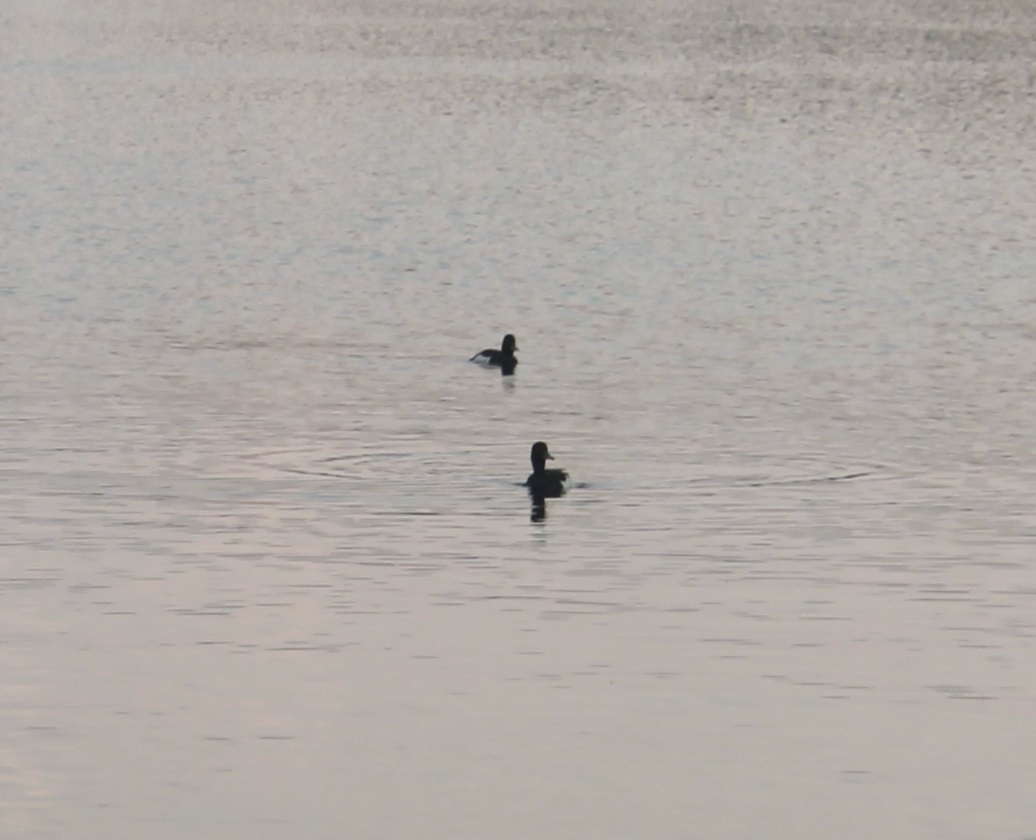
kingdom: Animalia
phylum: Chordata
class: Aves
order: Anseriformes
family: Anatidae
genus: Aythya
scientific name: Aythya fuligula
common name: Tufted duck
